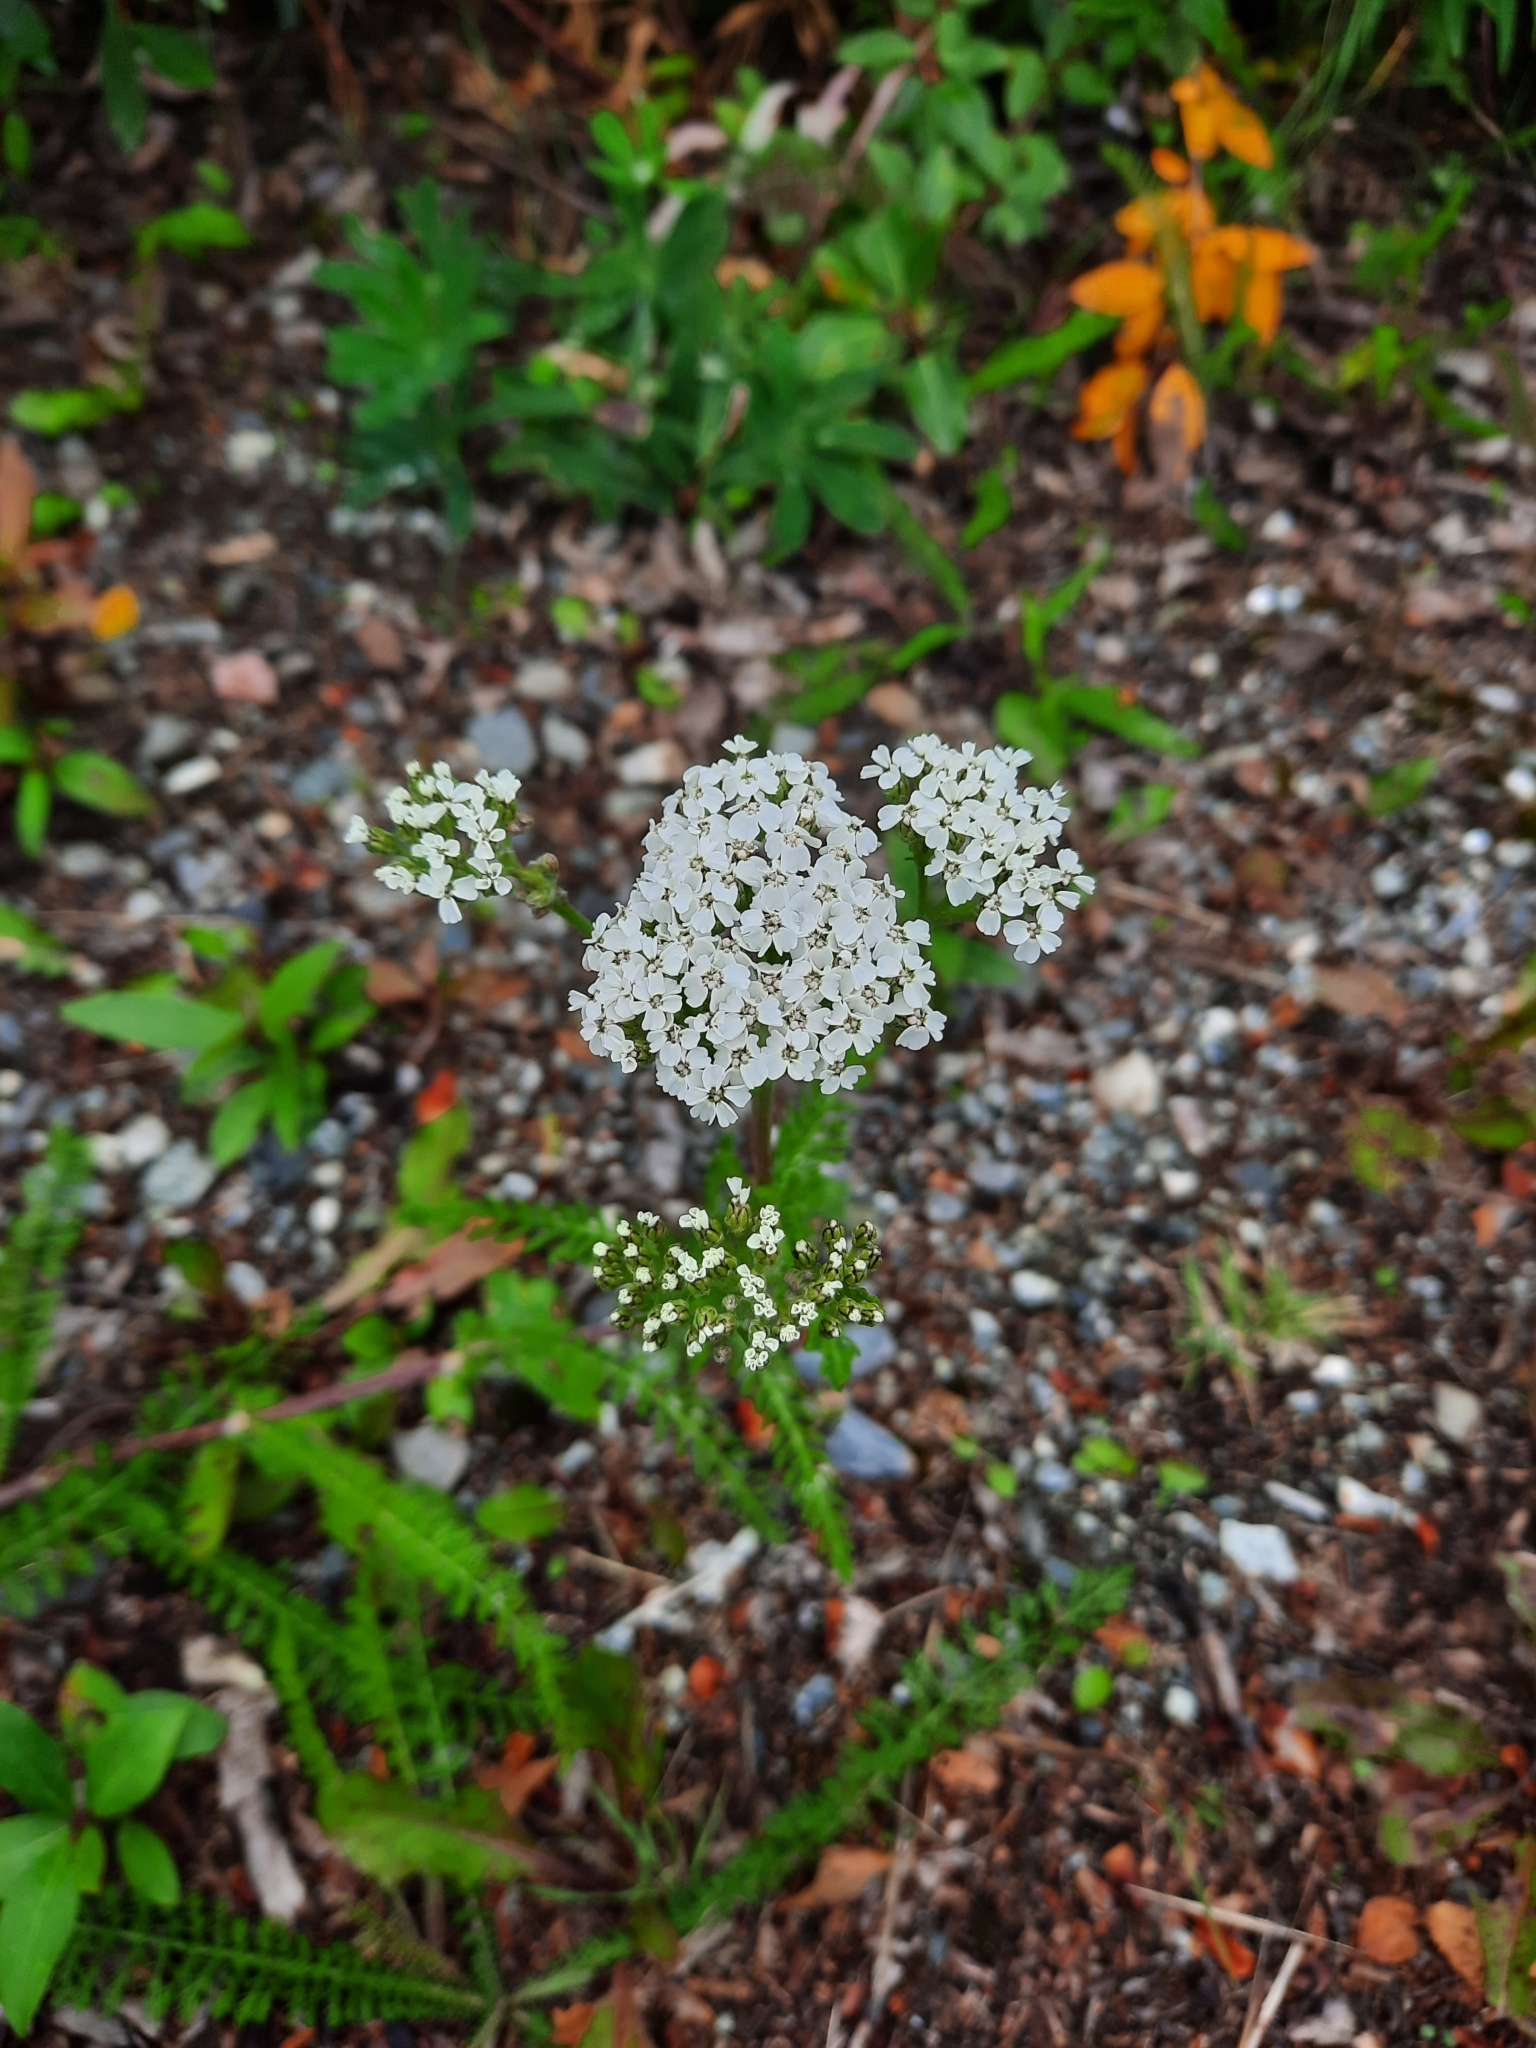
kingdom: Plantae
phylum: Tracheophyta
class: Magnoliopsida
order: Asterales
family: Asteraceae
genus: Achillea
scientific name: Achillea millefolium
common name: Yarrow
